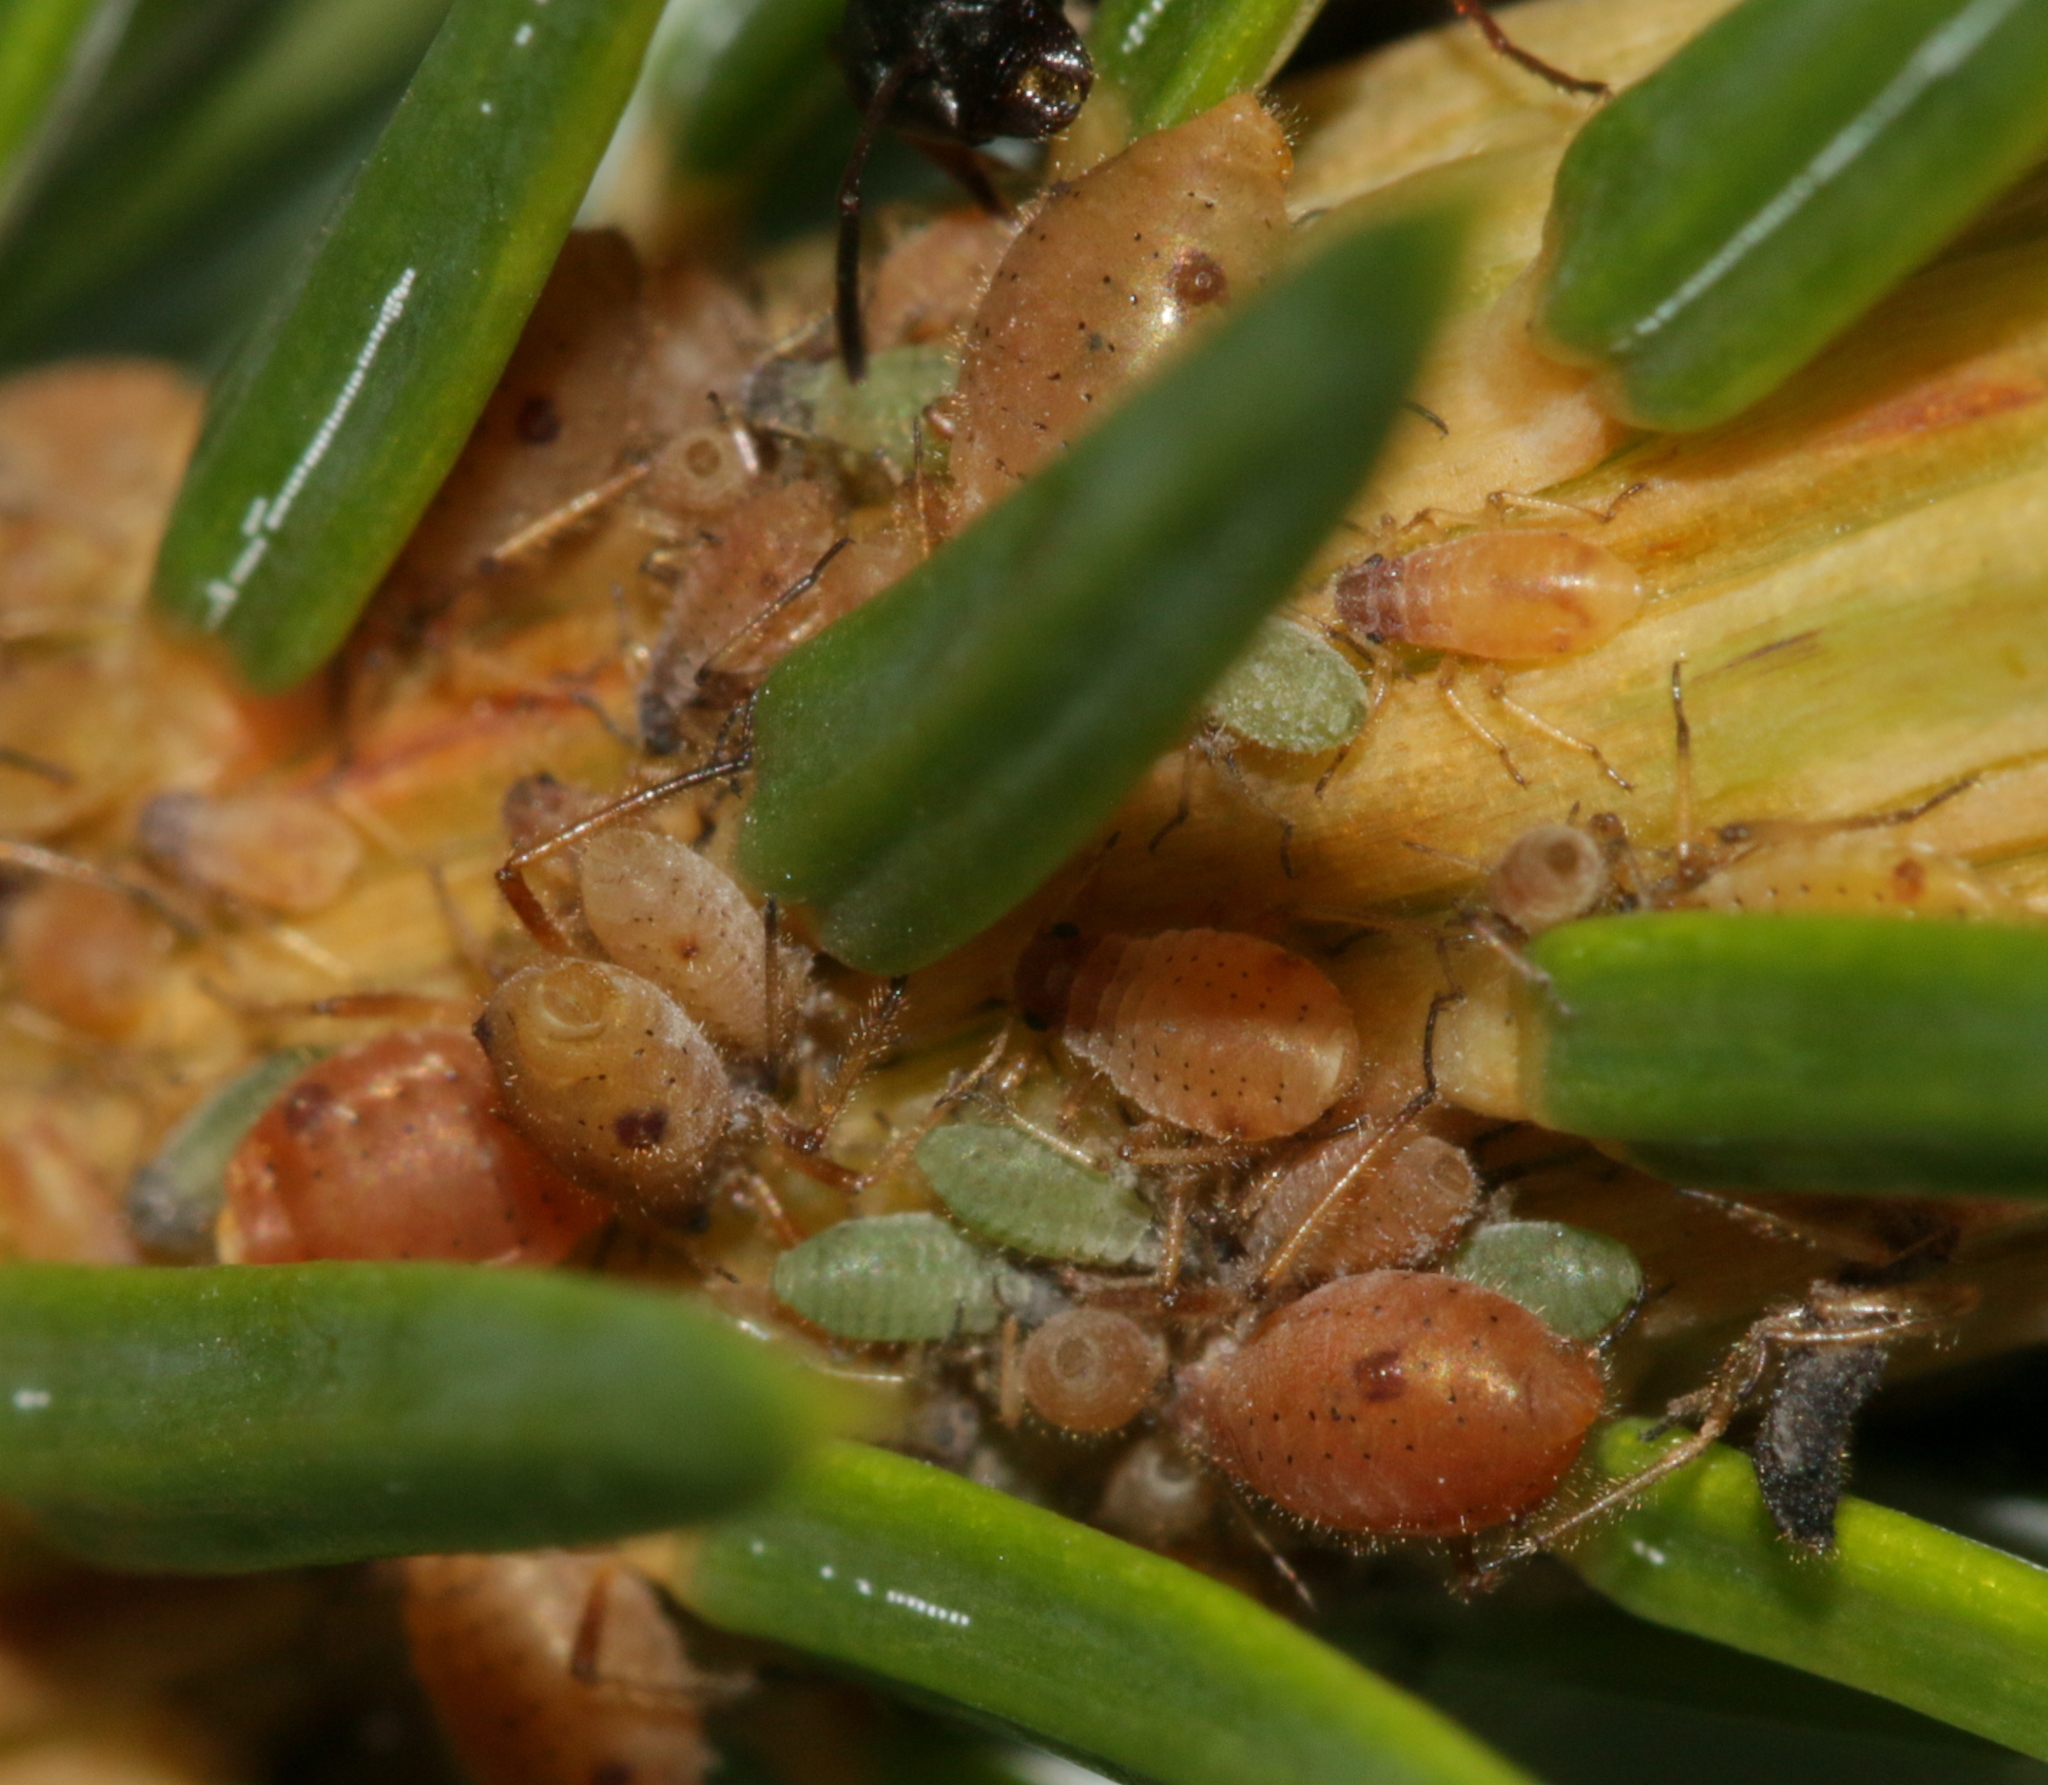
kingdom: Animalia
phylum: Arthropoda
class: Insecta
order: Hemiptera
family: Aphididae
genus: Cinara
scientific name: Cinara pilicornis
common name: Aphid
